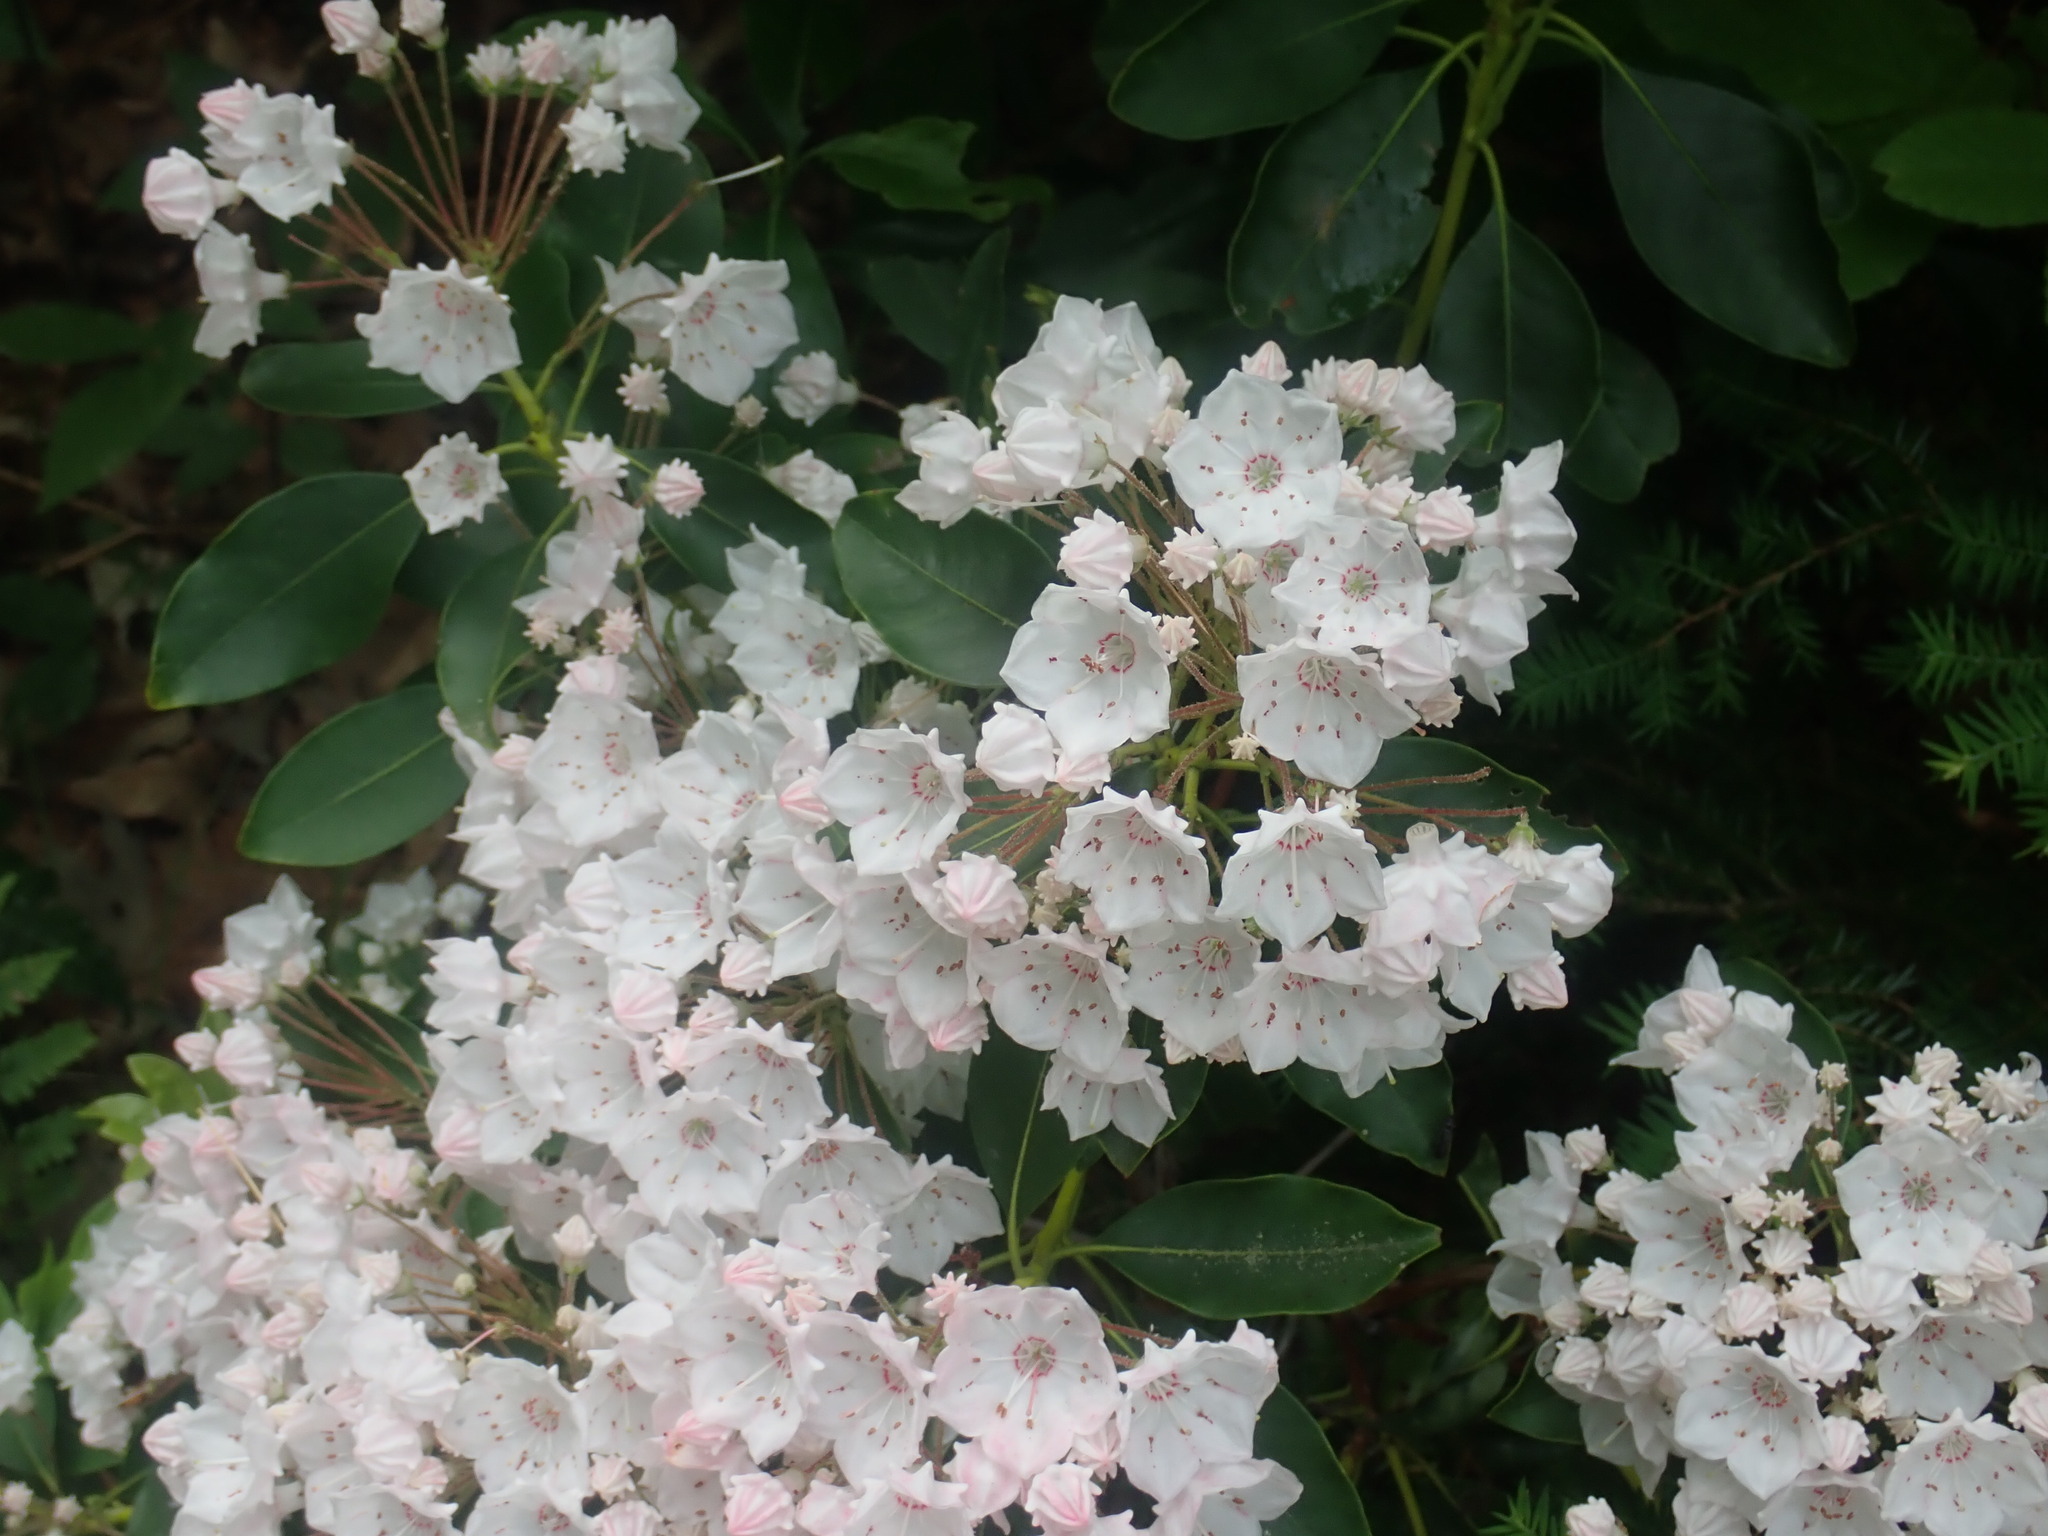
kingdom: Plantae
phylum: Tracheophyta
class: Magnoliopsida
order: Ericales
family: Ericaceae
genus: Kalmia
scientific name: Kalmia latifolia
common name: Mountain-laurel
